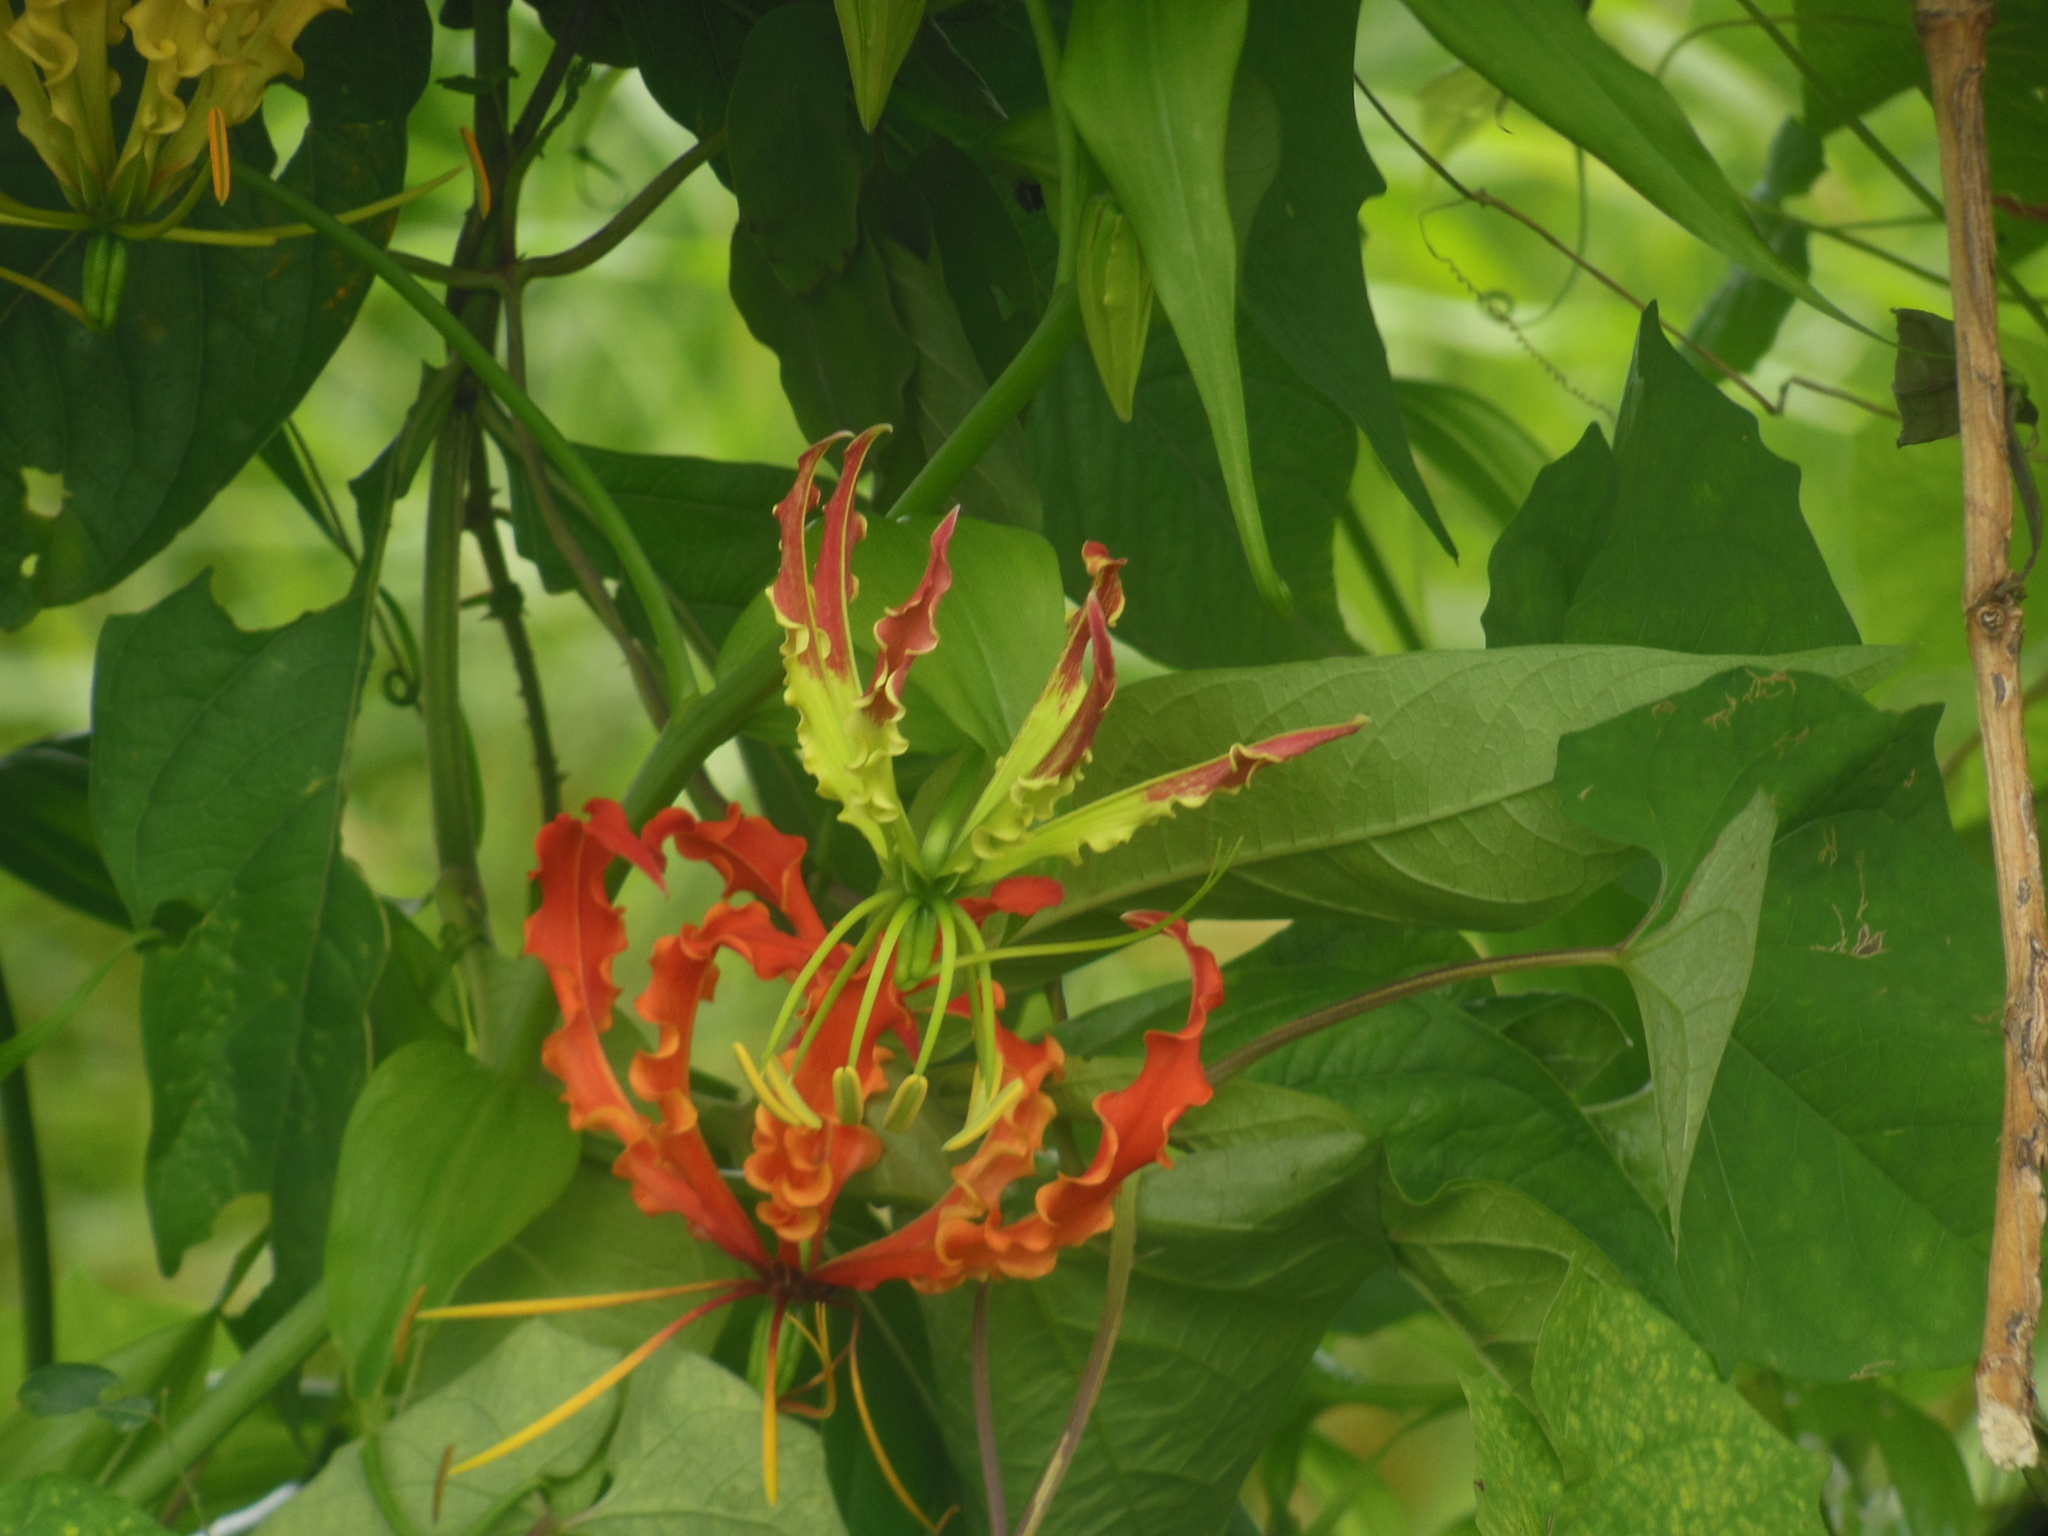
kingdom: Plantae
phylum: Tracheophyta
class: Liliopsida
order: Liliales
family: Colchicaceae
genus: Gloriosa
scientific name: Gloriosa superba
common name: Flame lily
